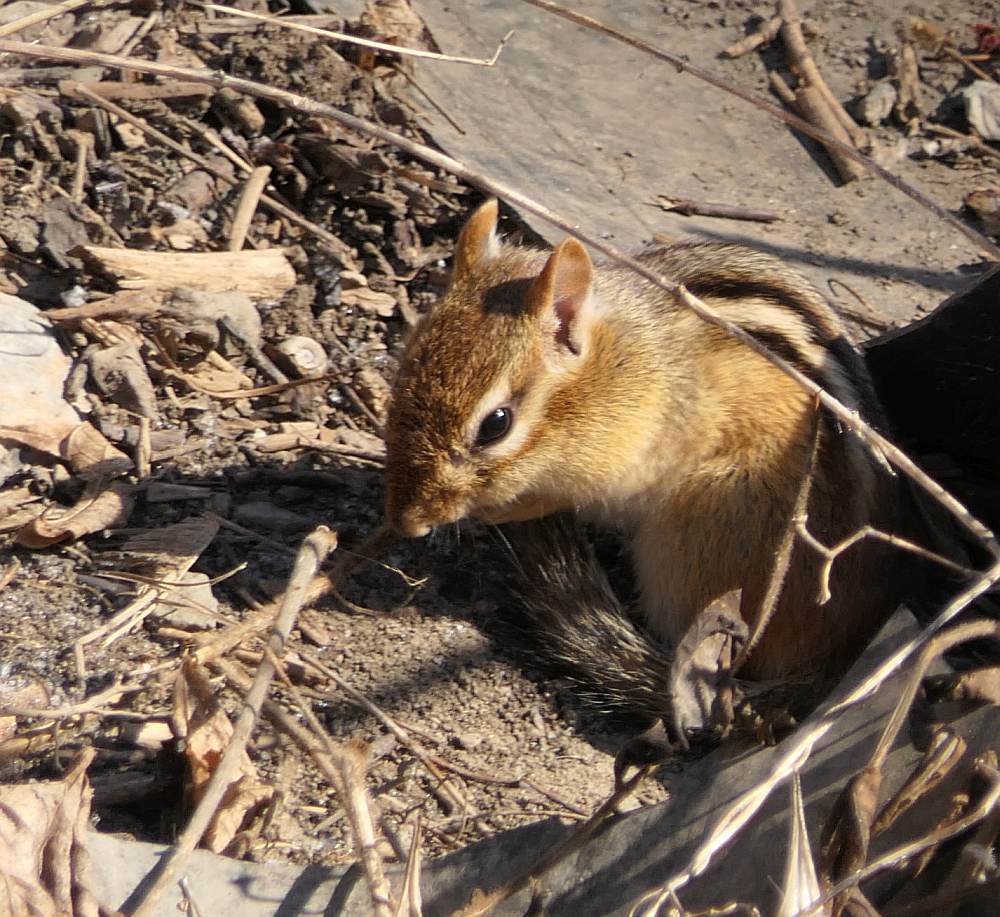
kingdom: Animalia
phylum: Chordata
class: Mammalia
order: Rodentia
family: Sciuridae
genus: Tamias
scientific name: Tamias striatus
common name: Eastern chipmunk
